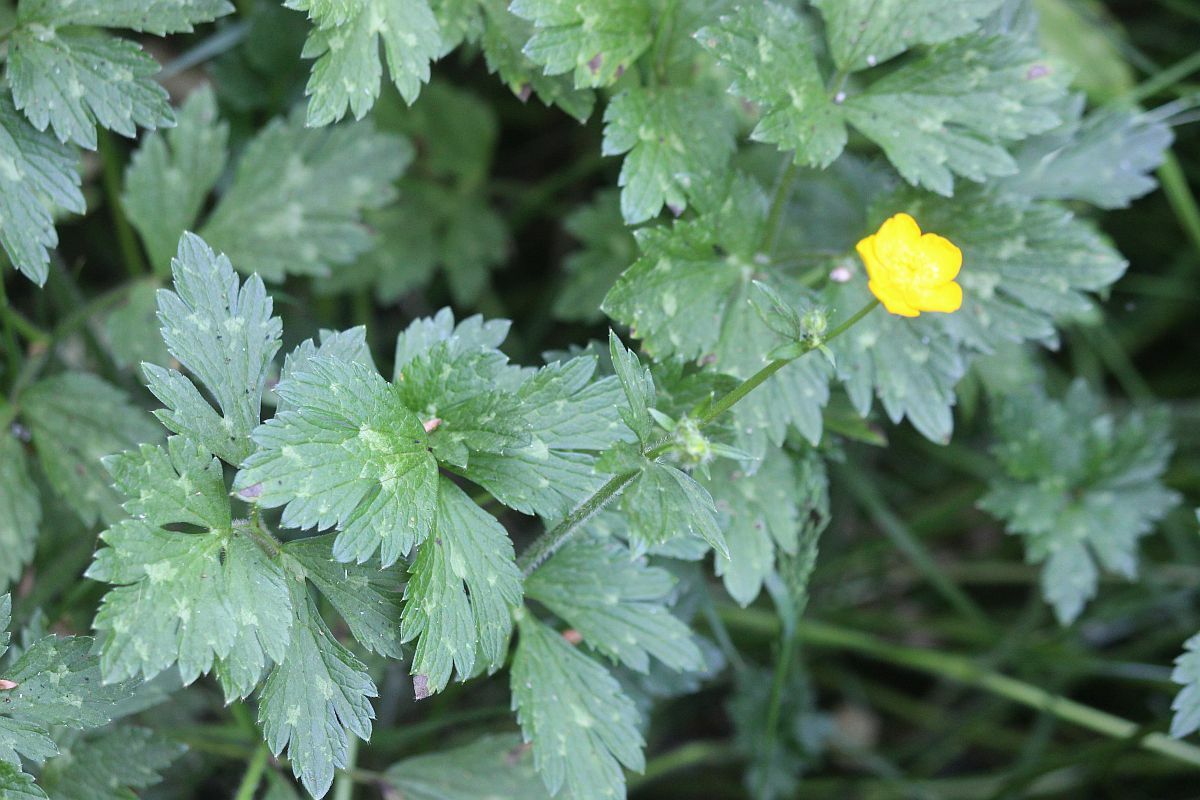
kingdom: Plantae
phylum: Tracheophyta
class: Magnoliopsida
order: Ranunculales
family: Ranunculaceae
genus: Ranunculus
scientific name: Ranunculus repens
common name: Creeping buttercup
